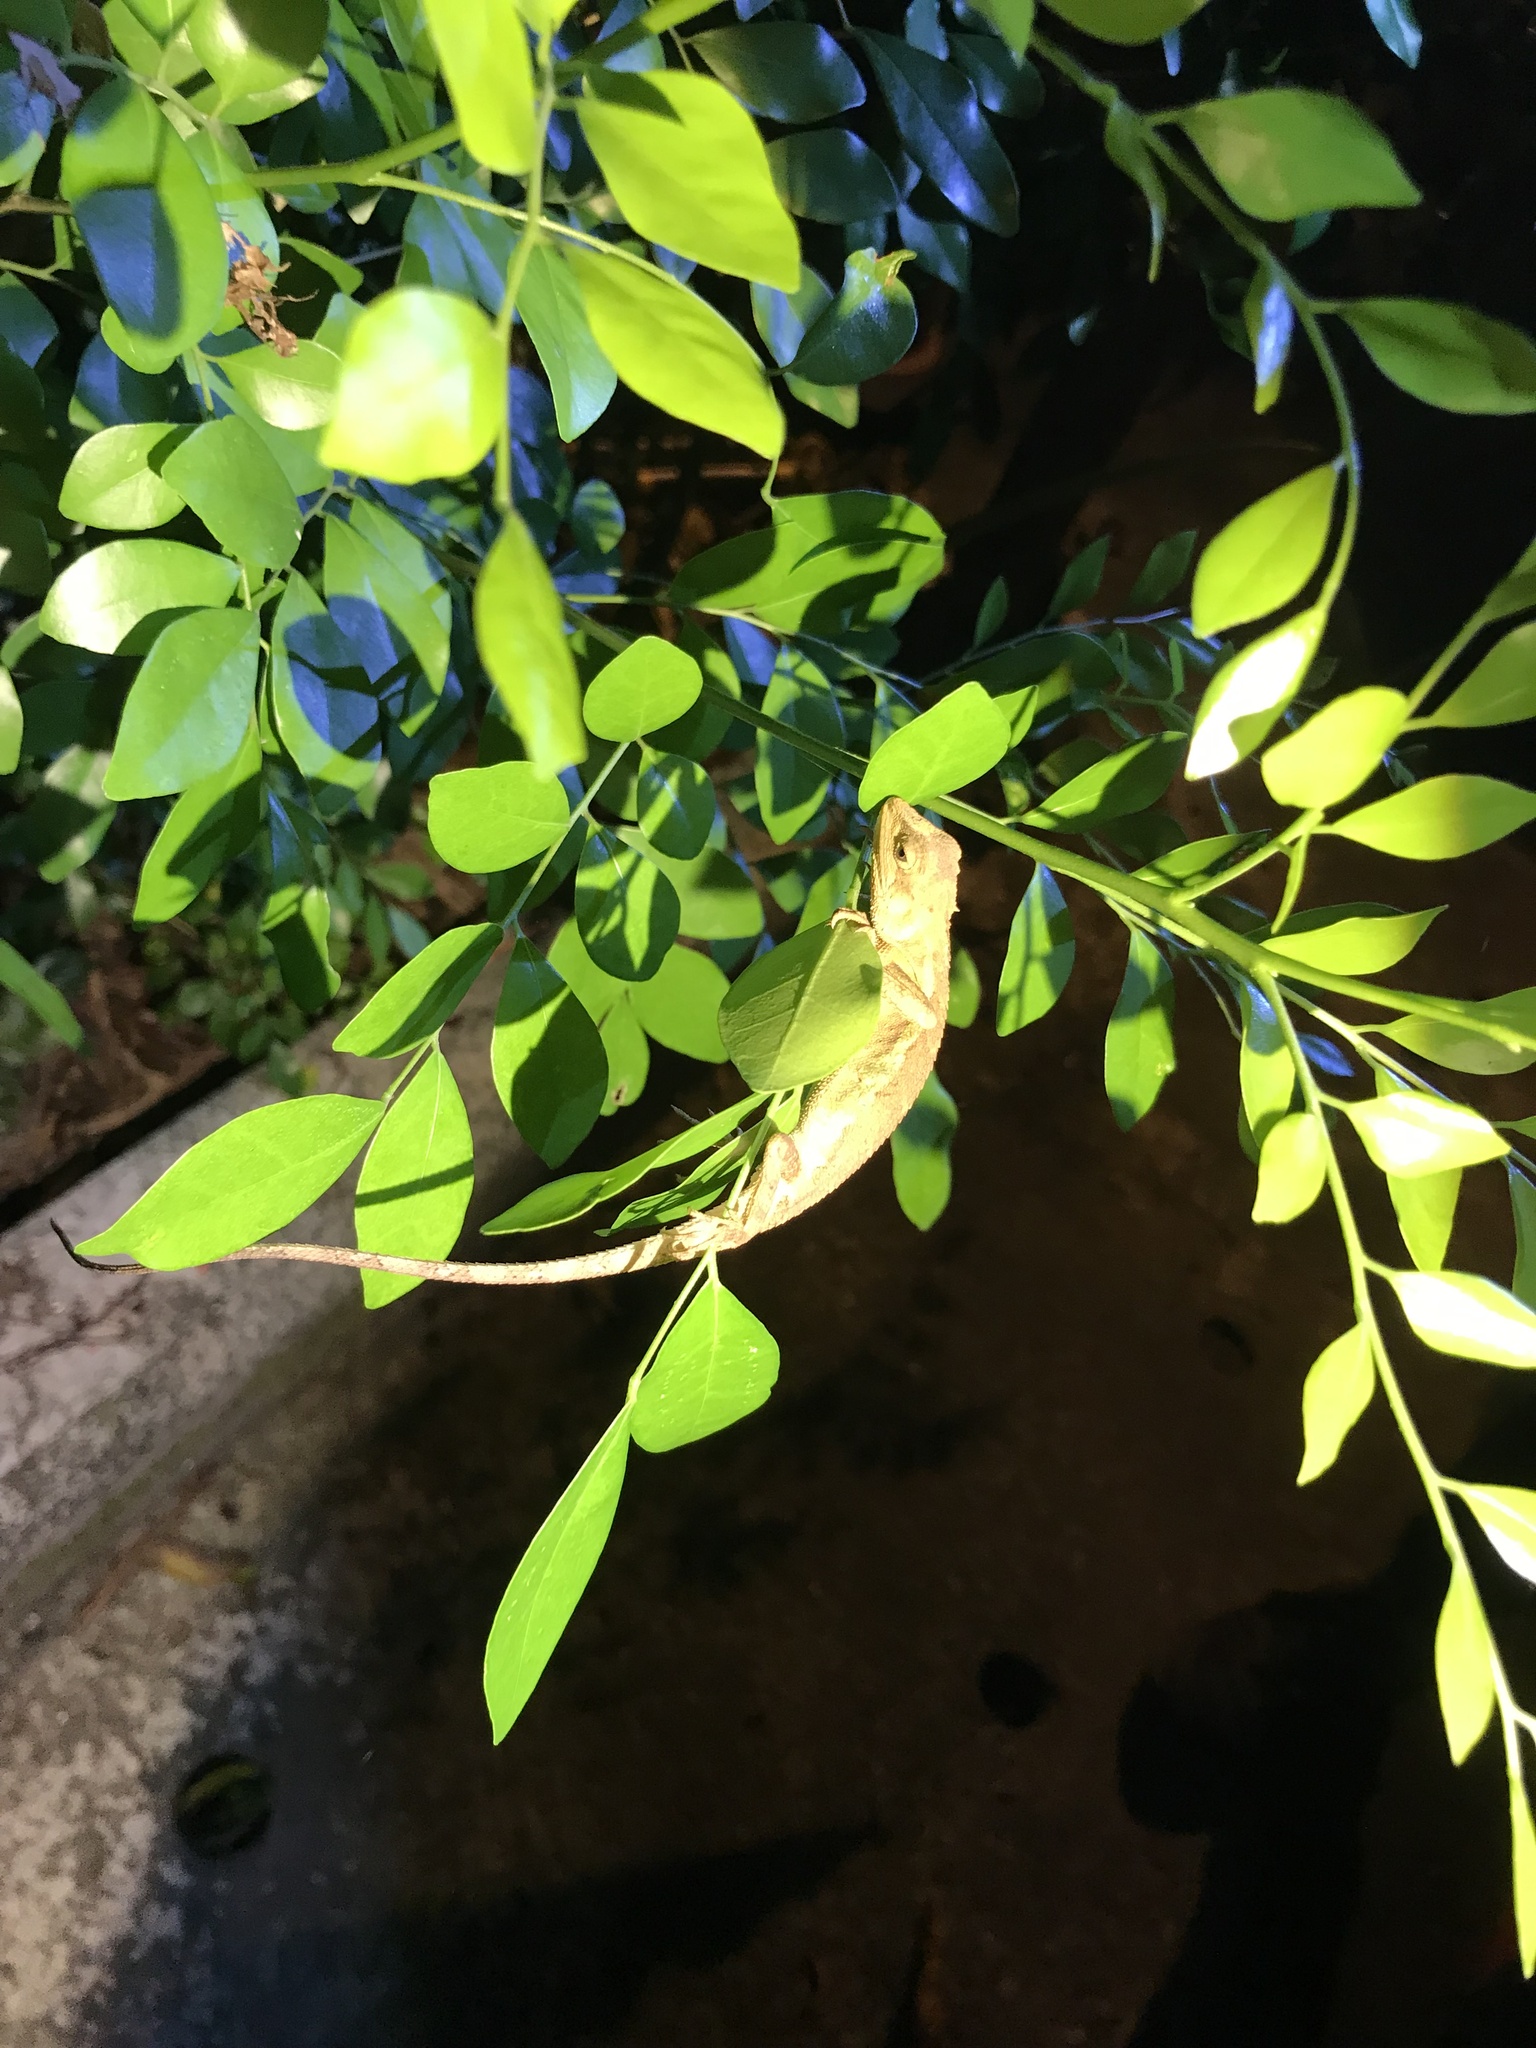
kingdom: Animalia
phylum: Chordata
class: Squamata
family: Agamidae
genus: Diploderma
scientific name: Diploderma swinhonis
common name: Taiwan japalure
